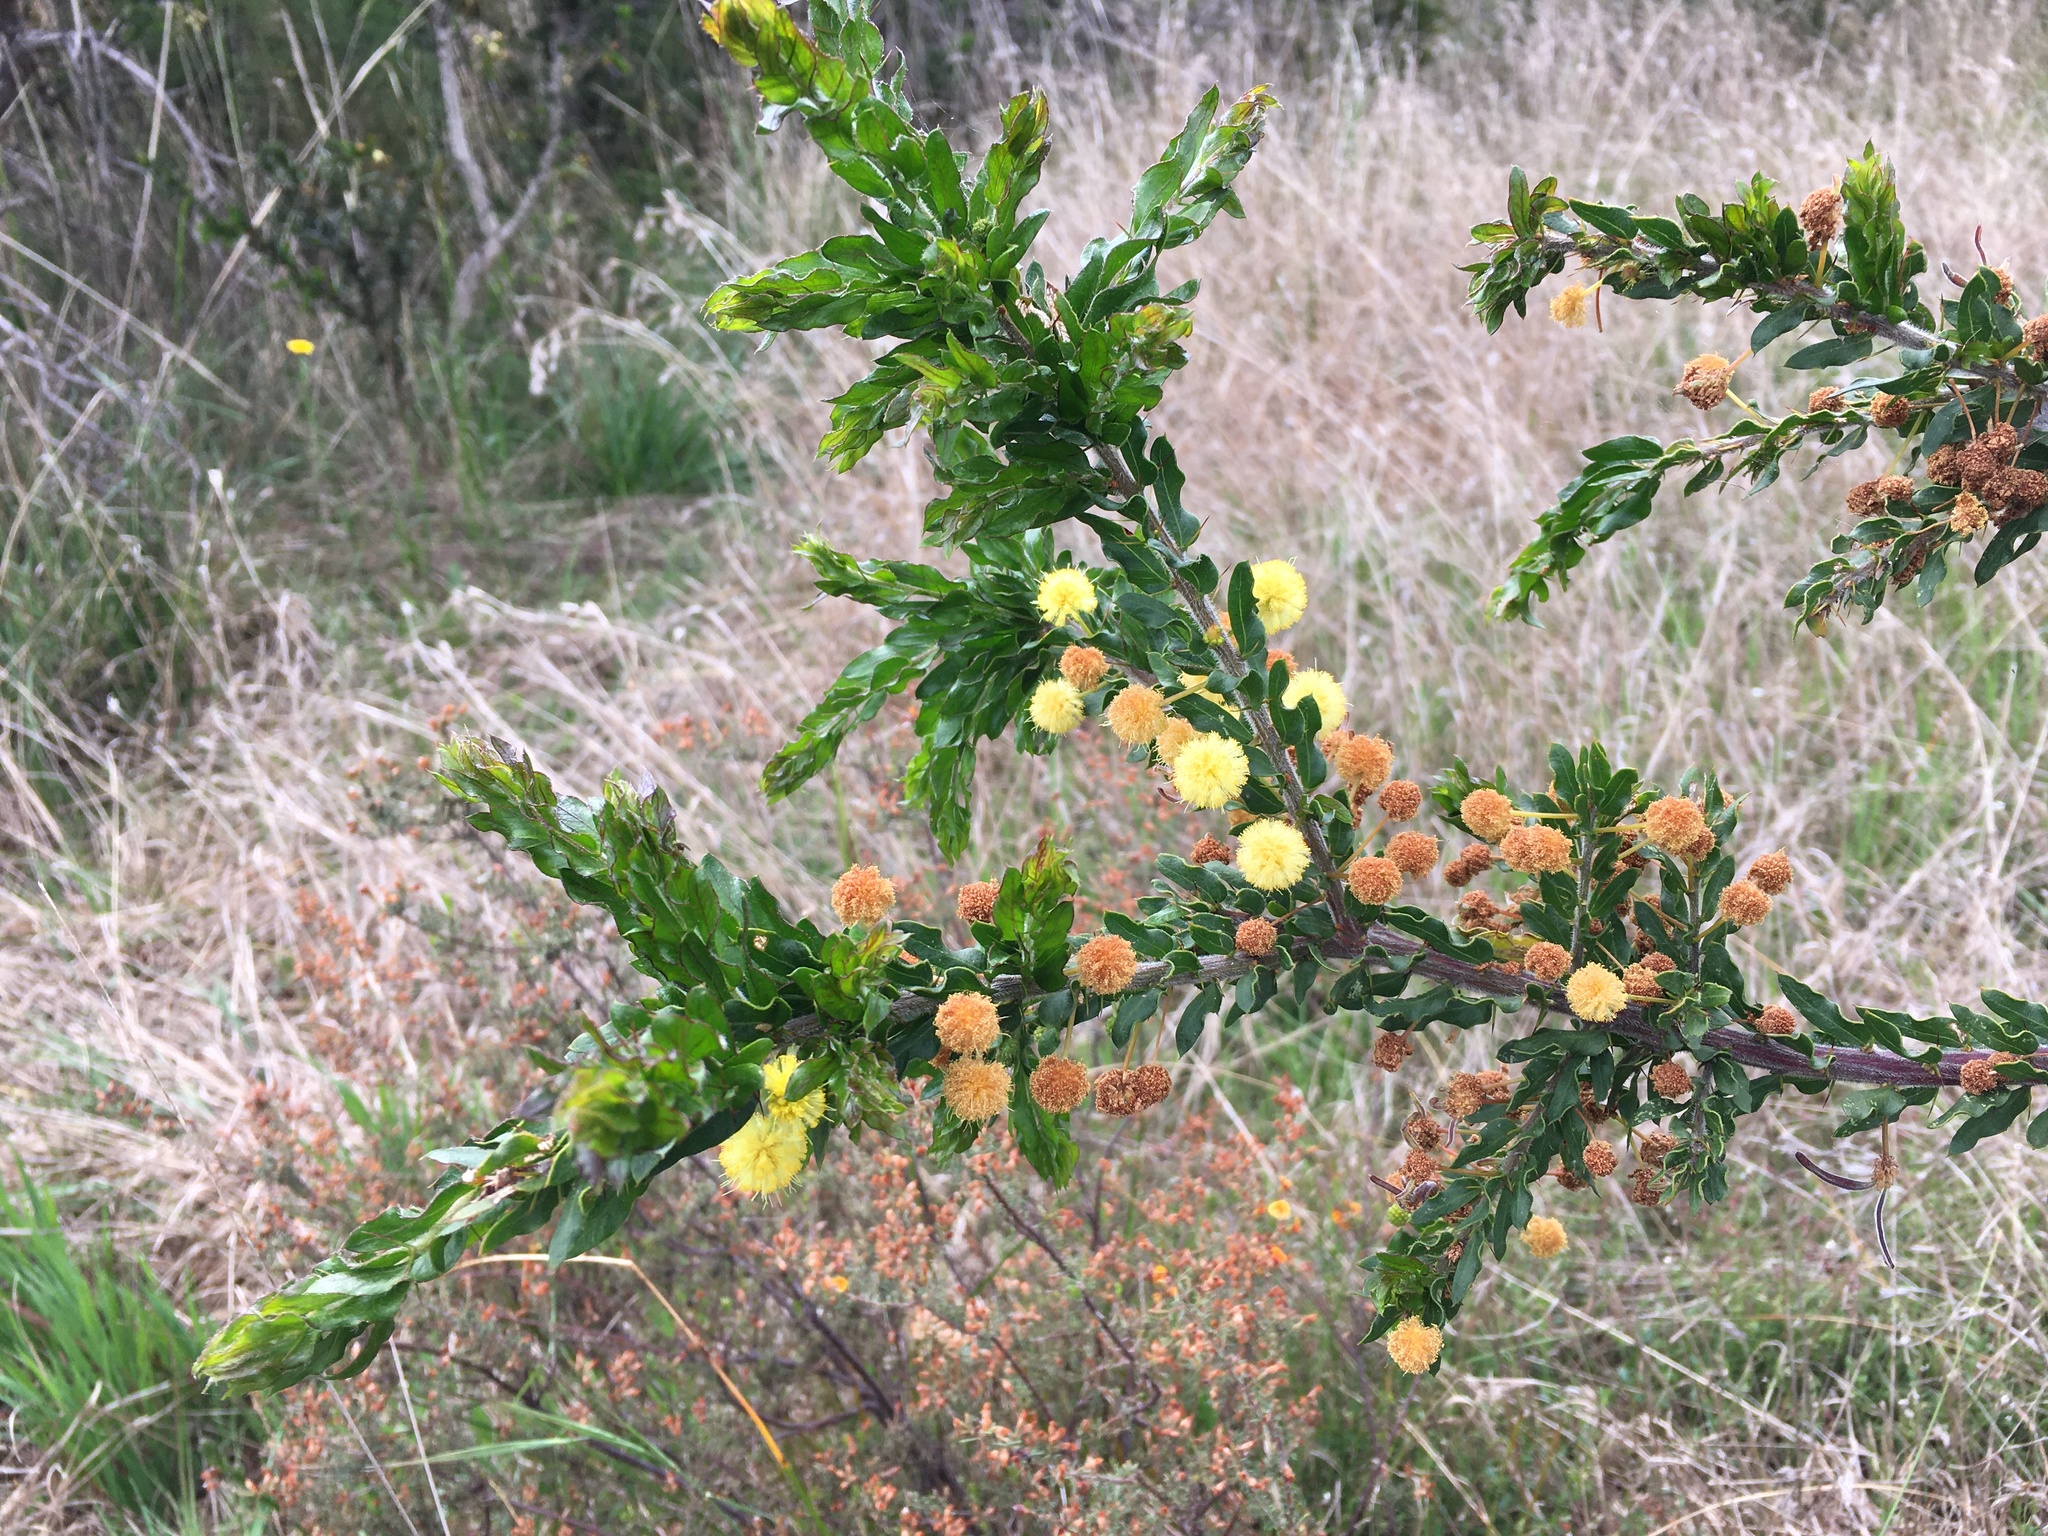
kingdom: Plantae
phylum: Tracheophyta
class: Magnoliopsida
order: Fabales
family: Fabaceae
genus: Acacia
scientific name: Acacia paradoxa
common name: Paradox acacia
